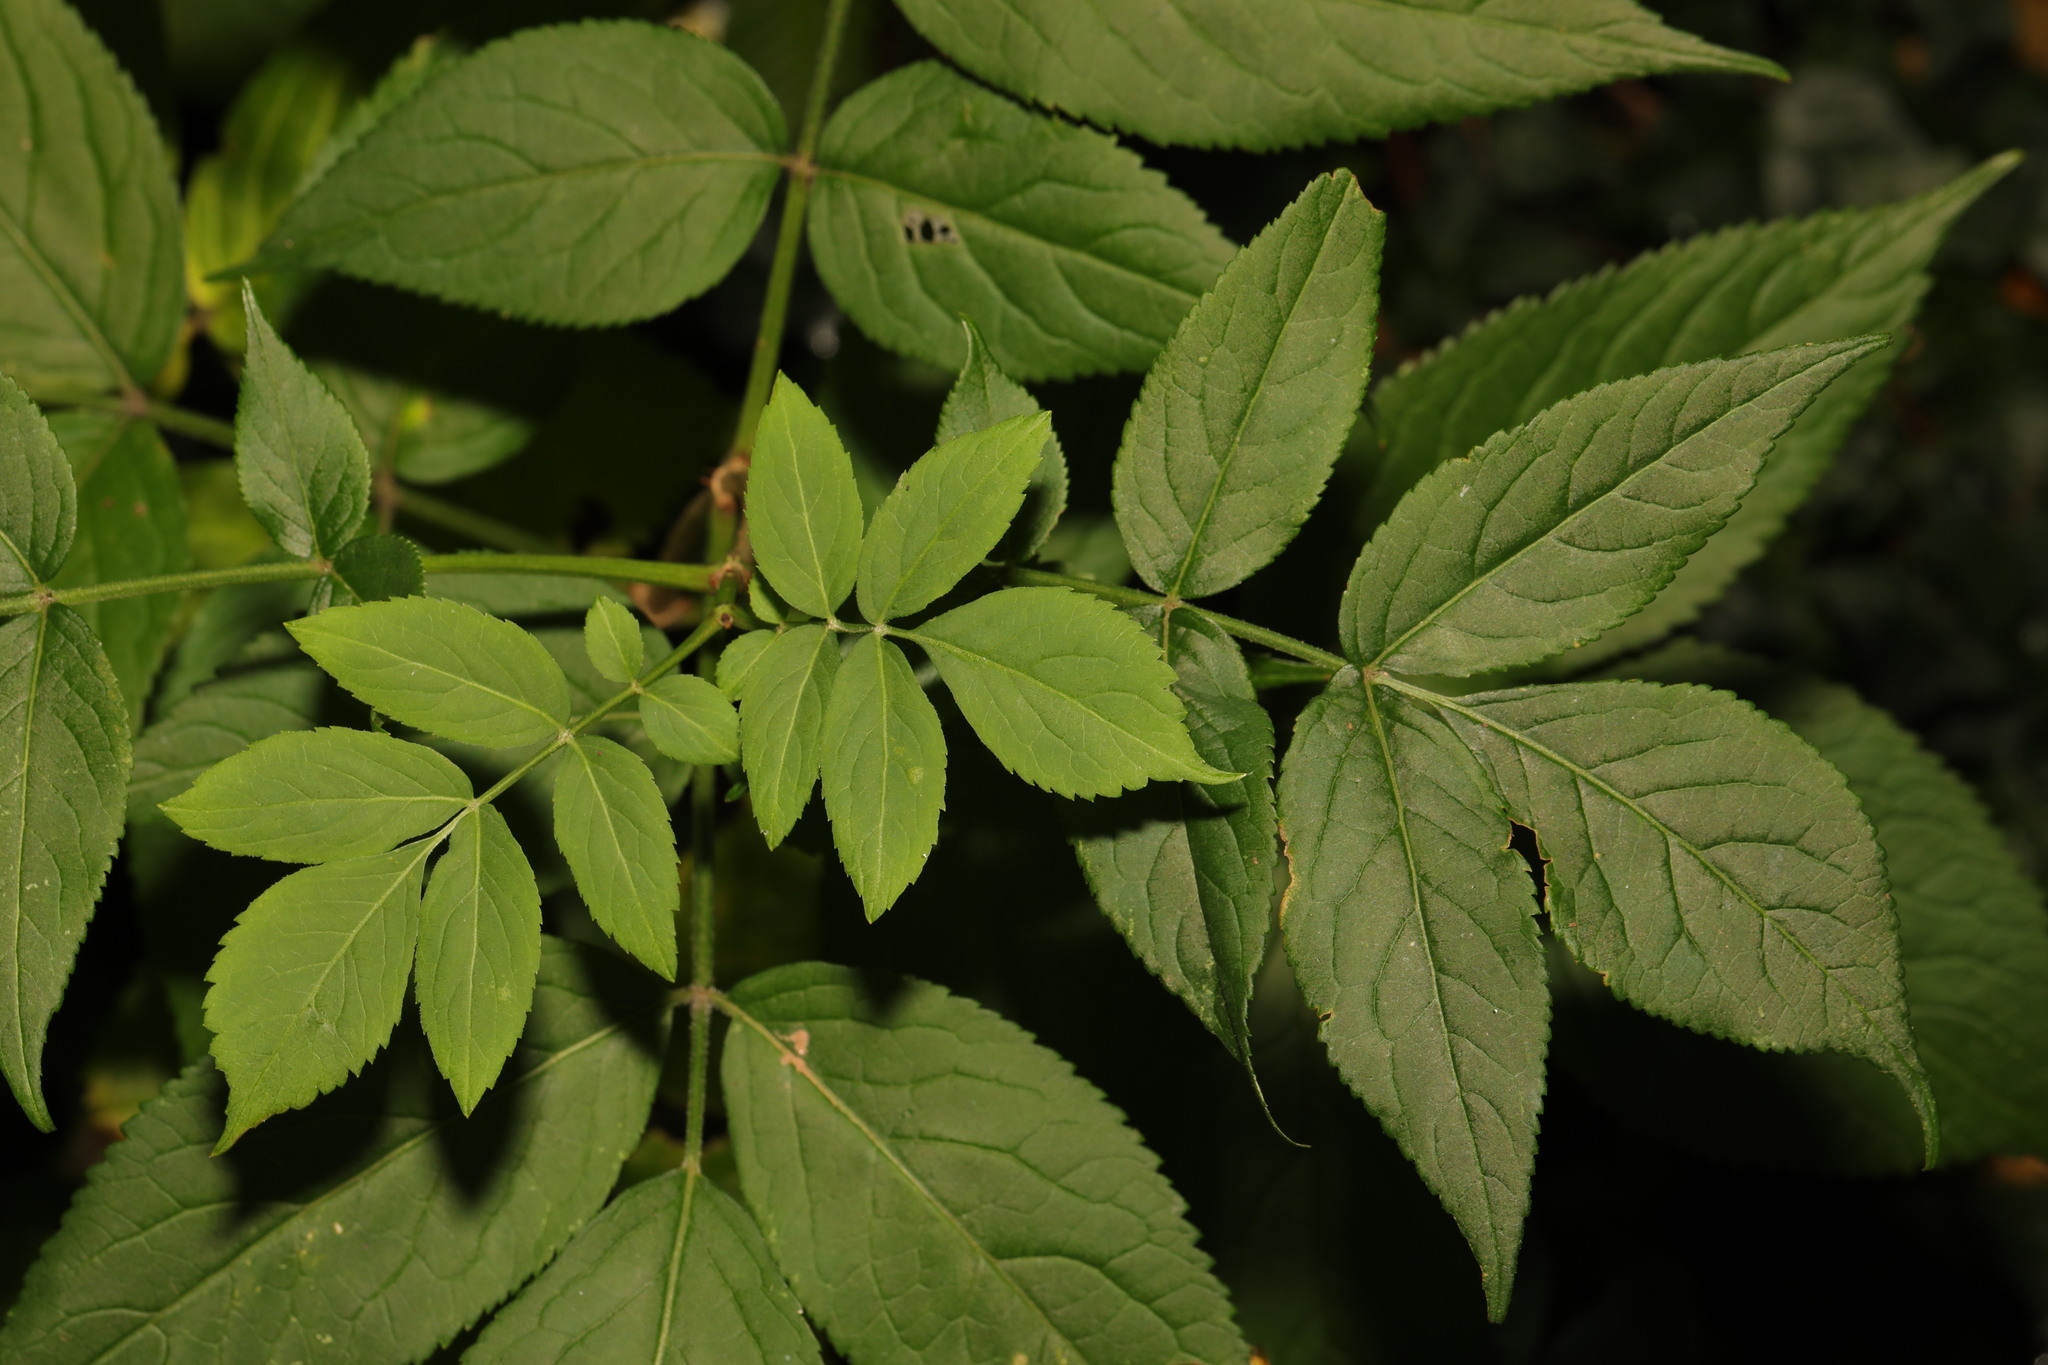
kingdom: Plantae
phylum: Tracheophyta
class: Magnoliopsida
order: Dipsacales
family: Viburnaceae
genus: Sambucus
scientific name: Sambucus nigra
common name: Elder
